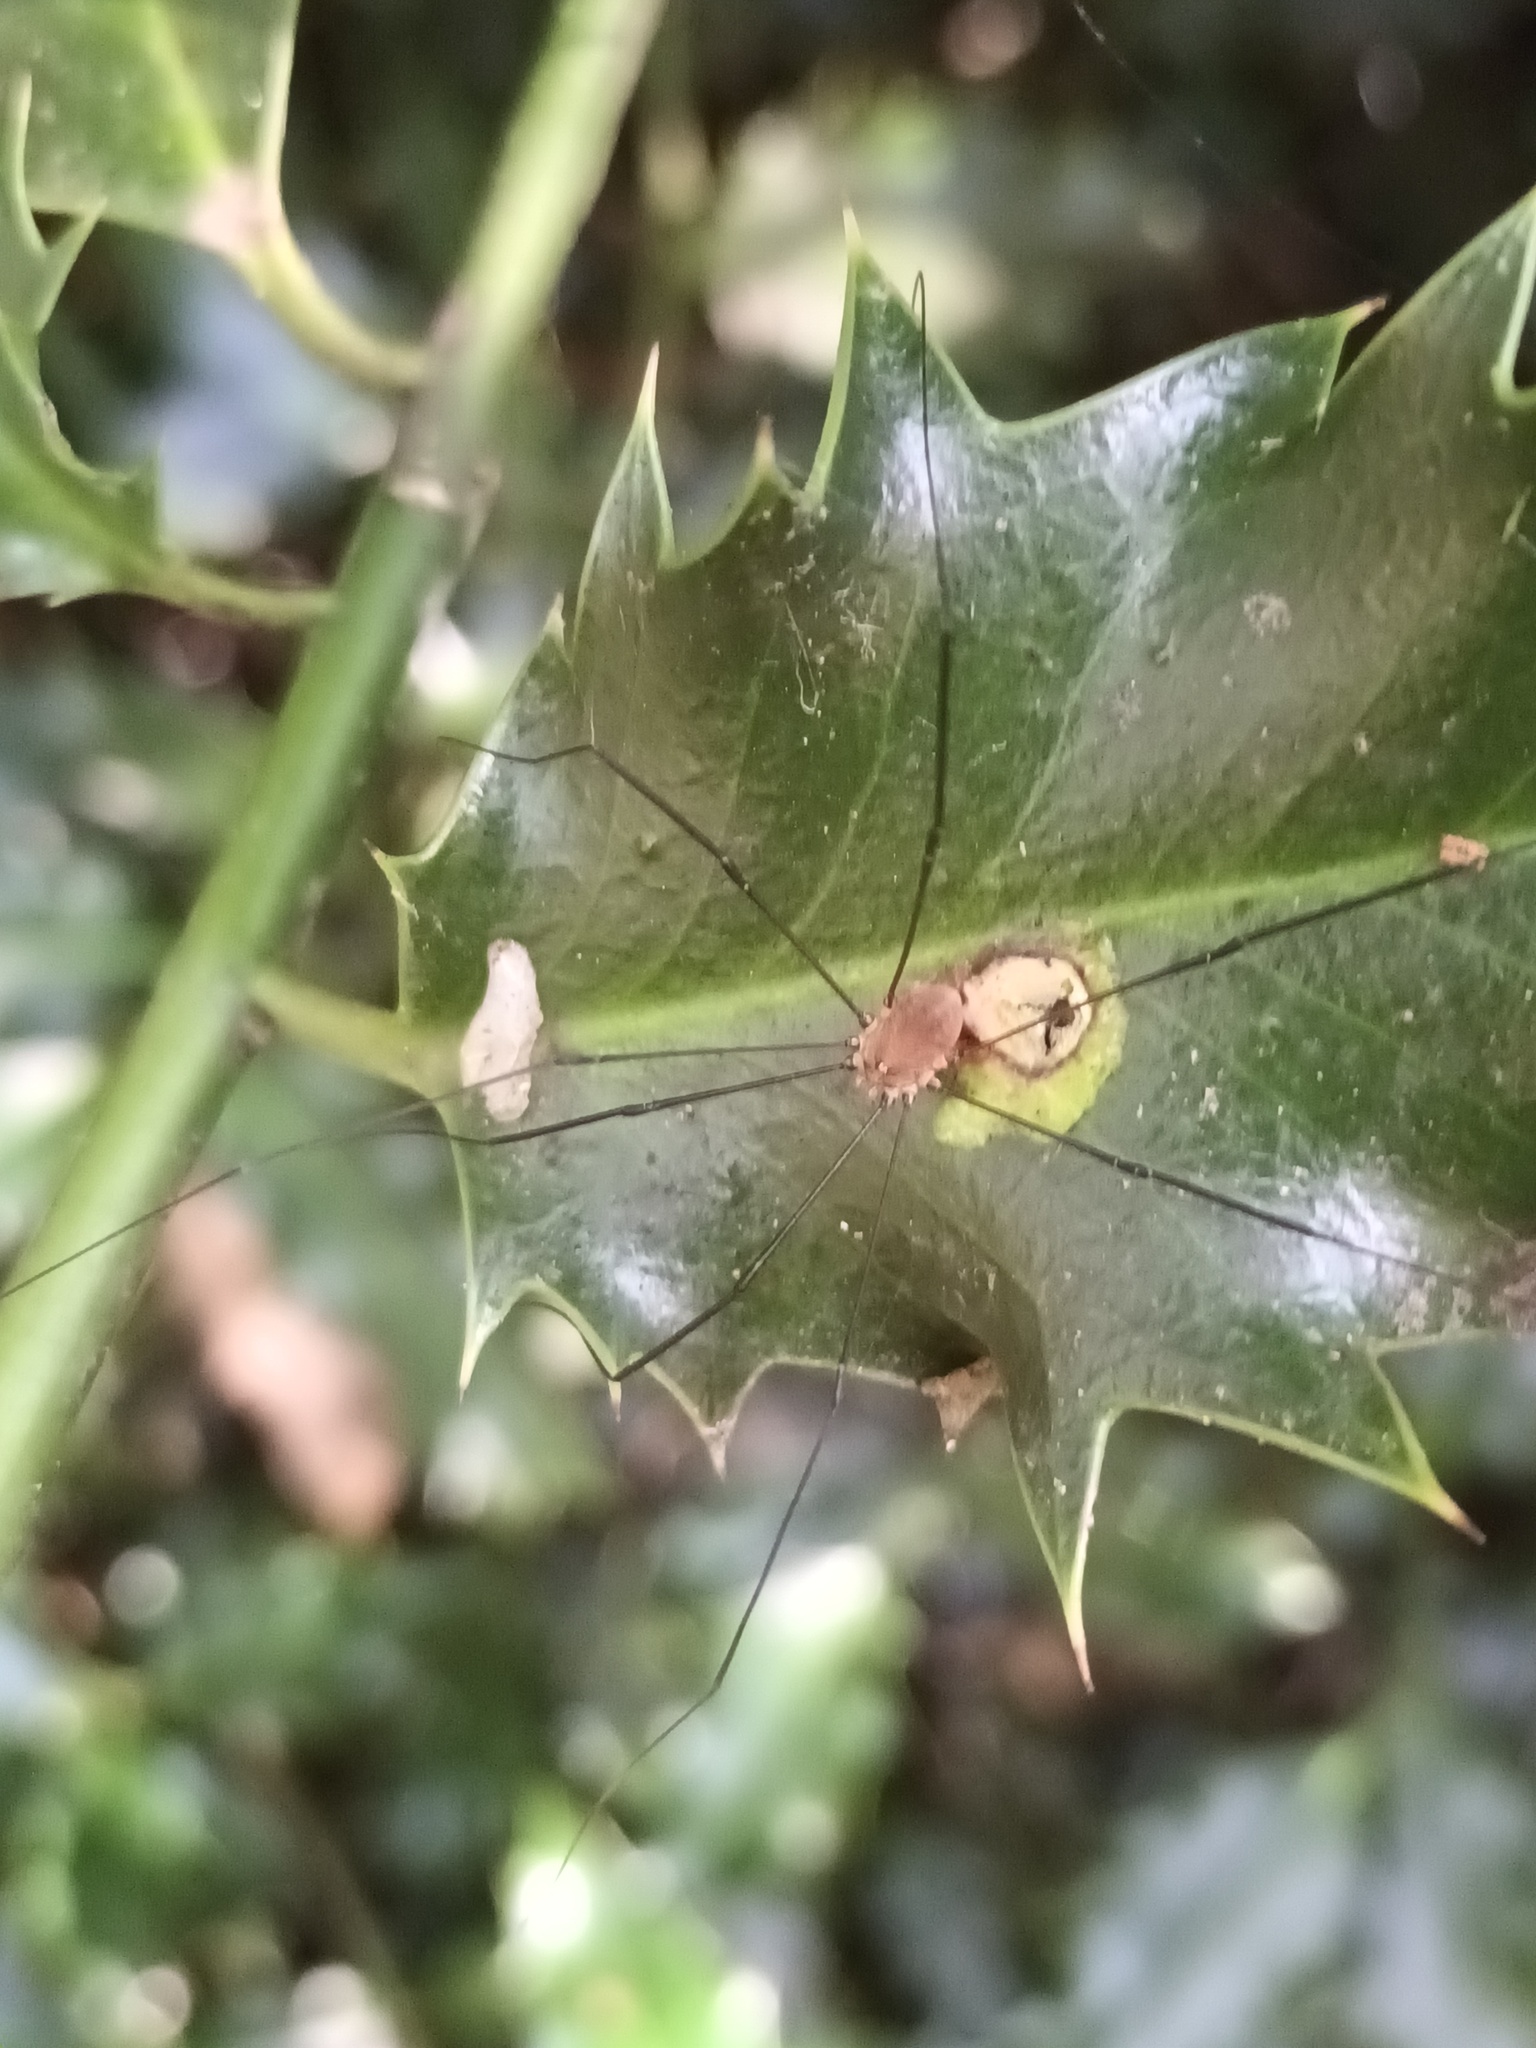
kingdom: Animalia
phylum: Arthropoda
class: Arachnida
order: Opiliones
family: Sclerosomatidae
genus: Leiobunum
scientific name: Leiobunum blackwalli
